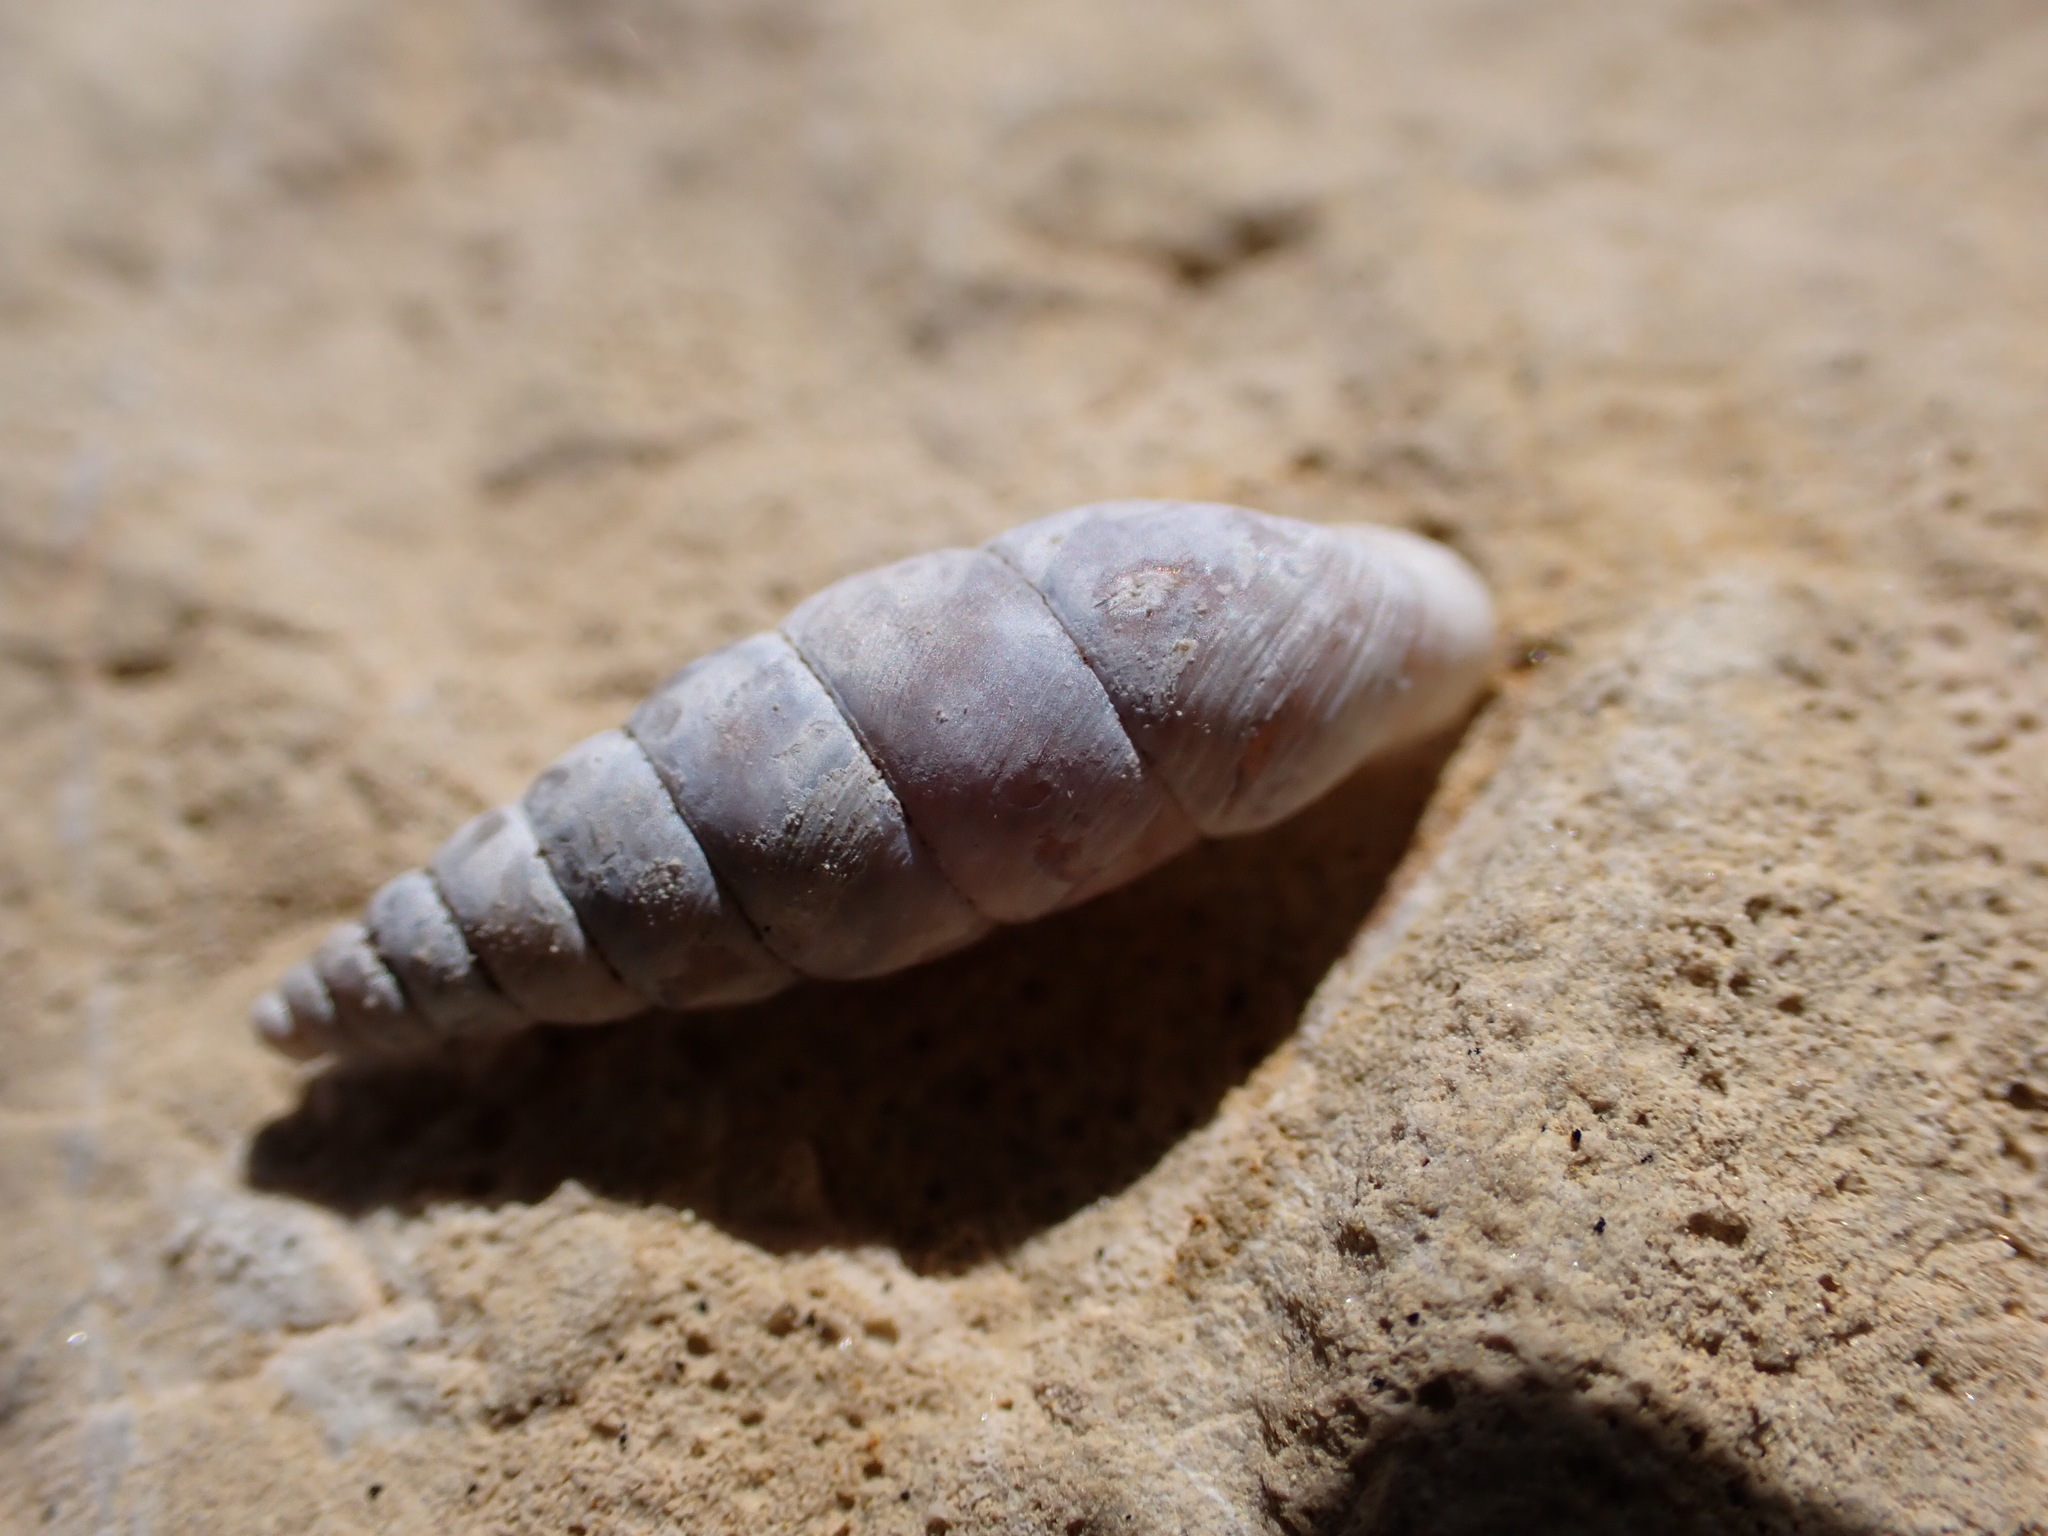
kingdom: Animalia
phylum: Mollusca
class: Gastropoda
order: Stylommatophora
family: Chondrinidae
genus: Solatopupa
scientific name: Solatopupa similis
